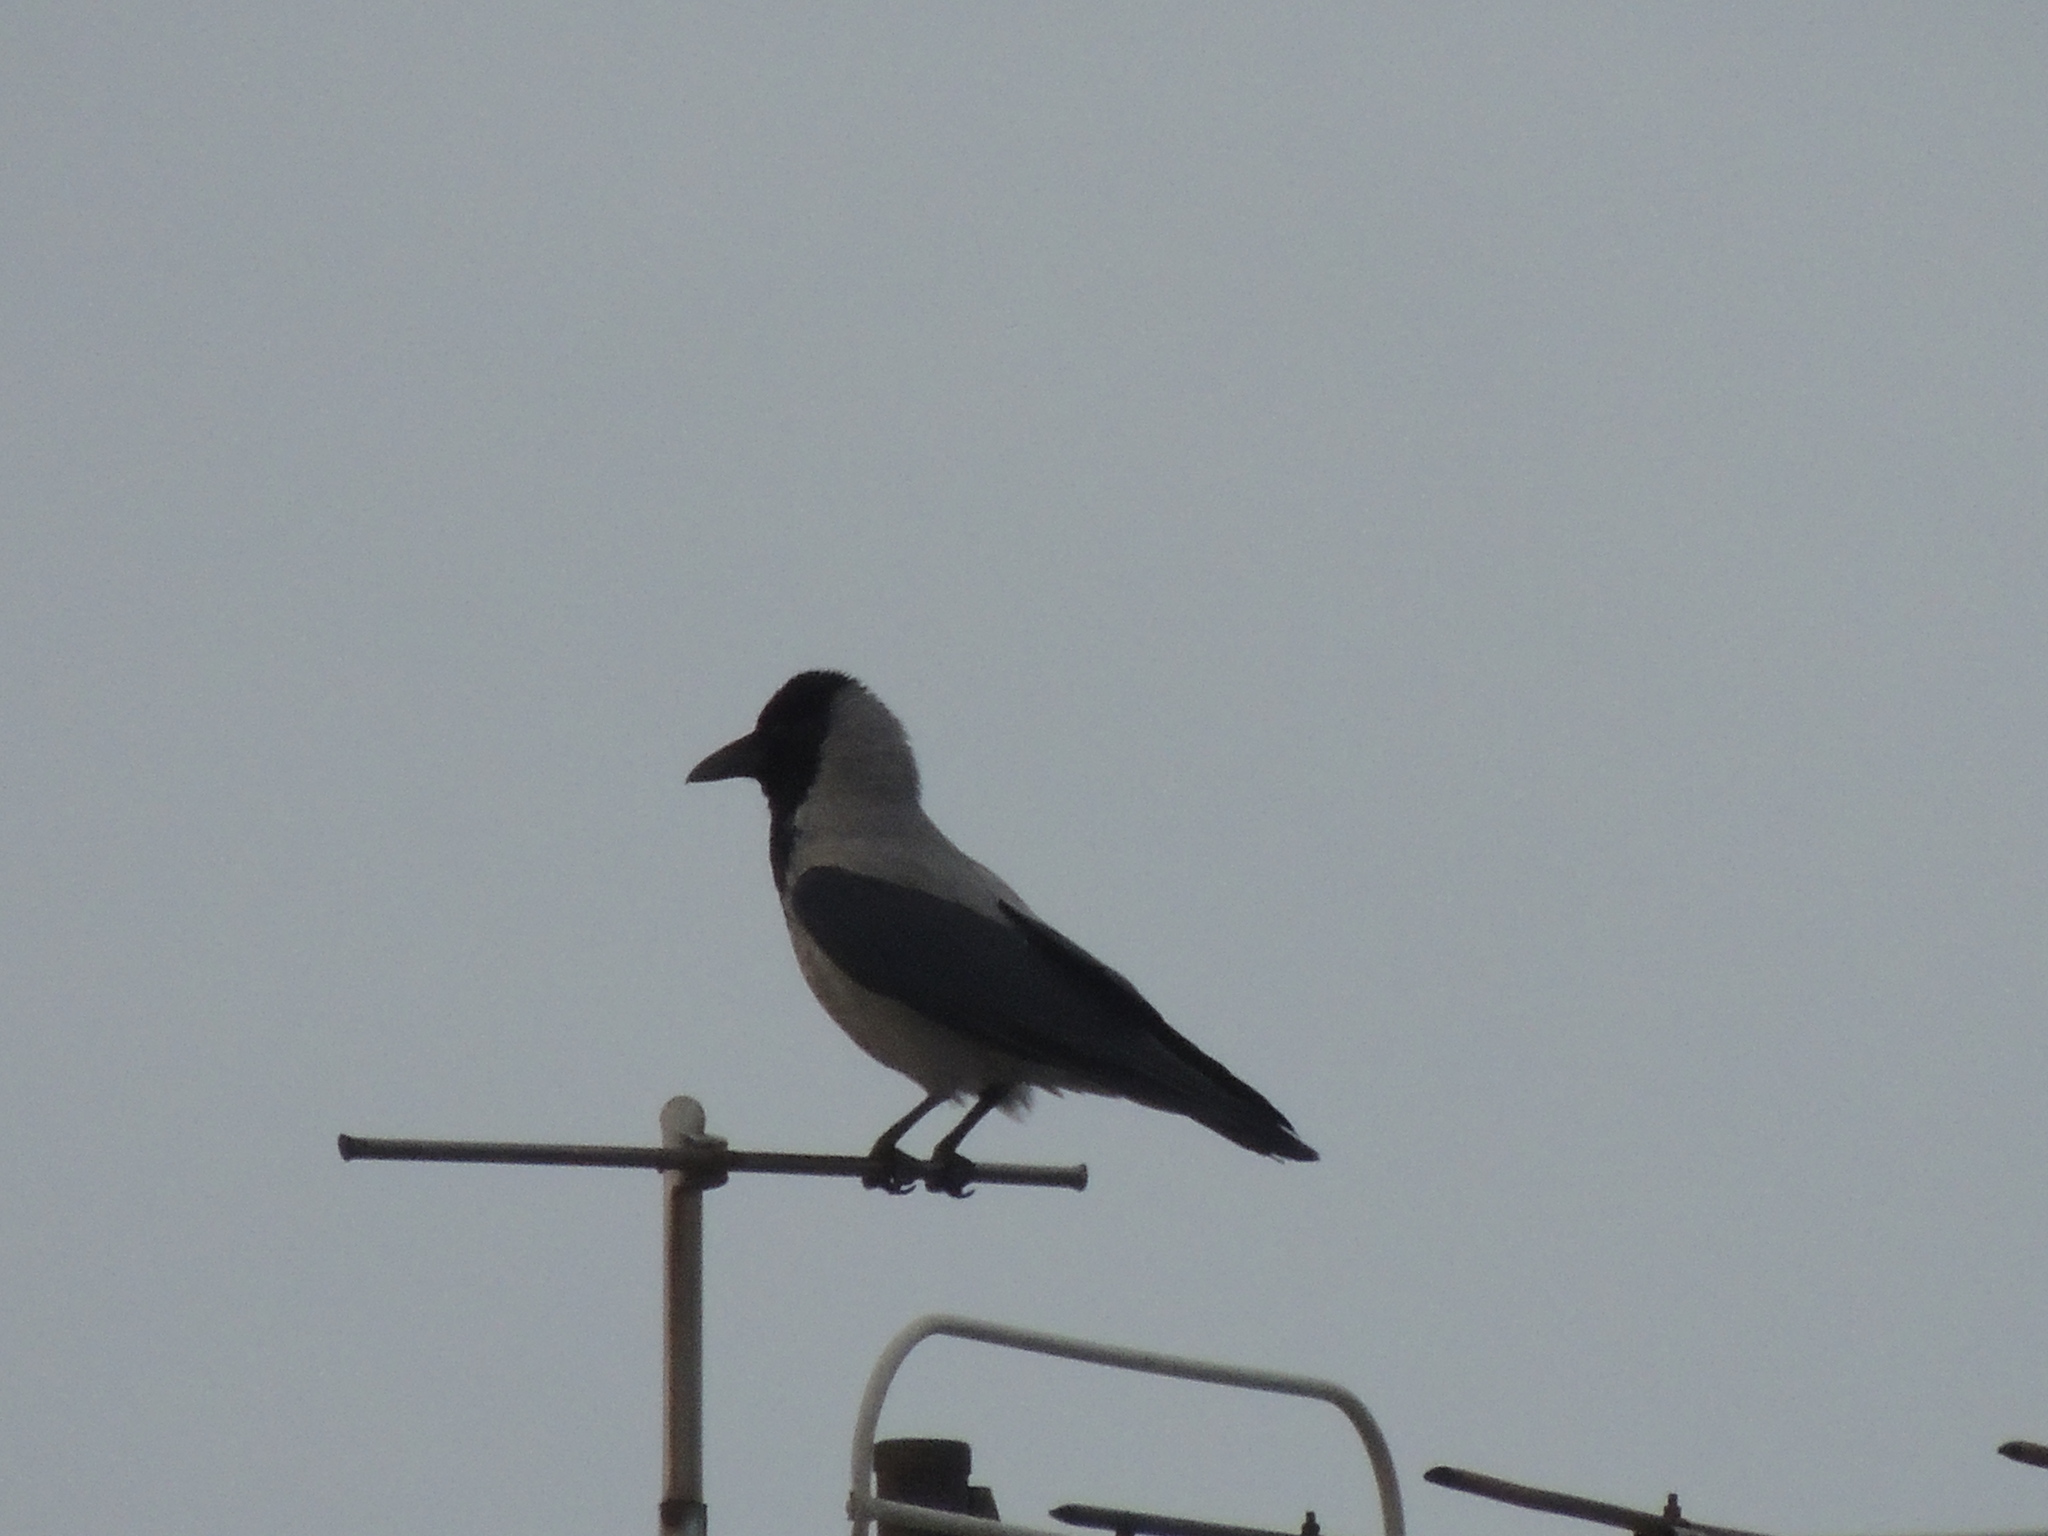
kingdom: Animalia
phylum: Chordata
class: Aves
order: Passeriformes
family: Corvidae
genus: Corvus
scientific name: Corvus cornix
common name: Hooded crow
